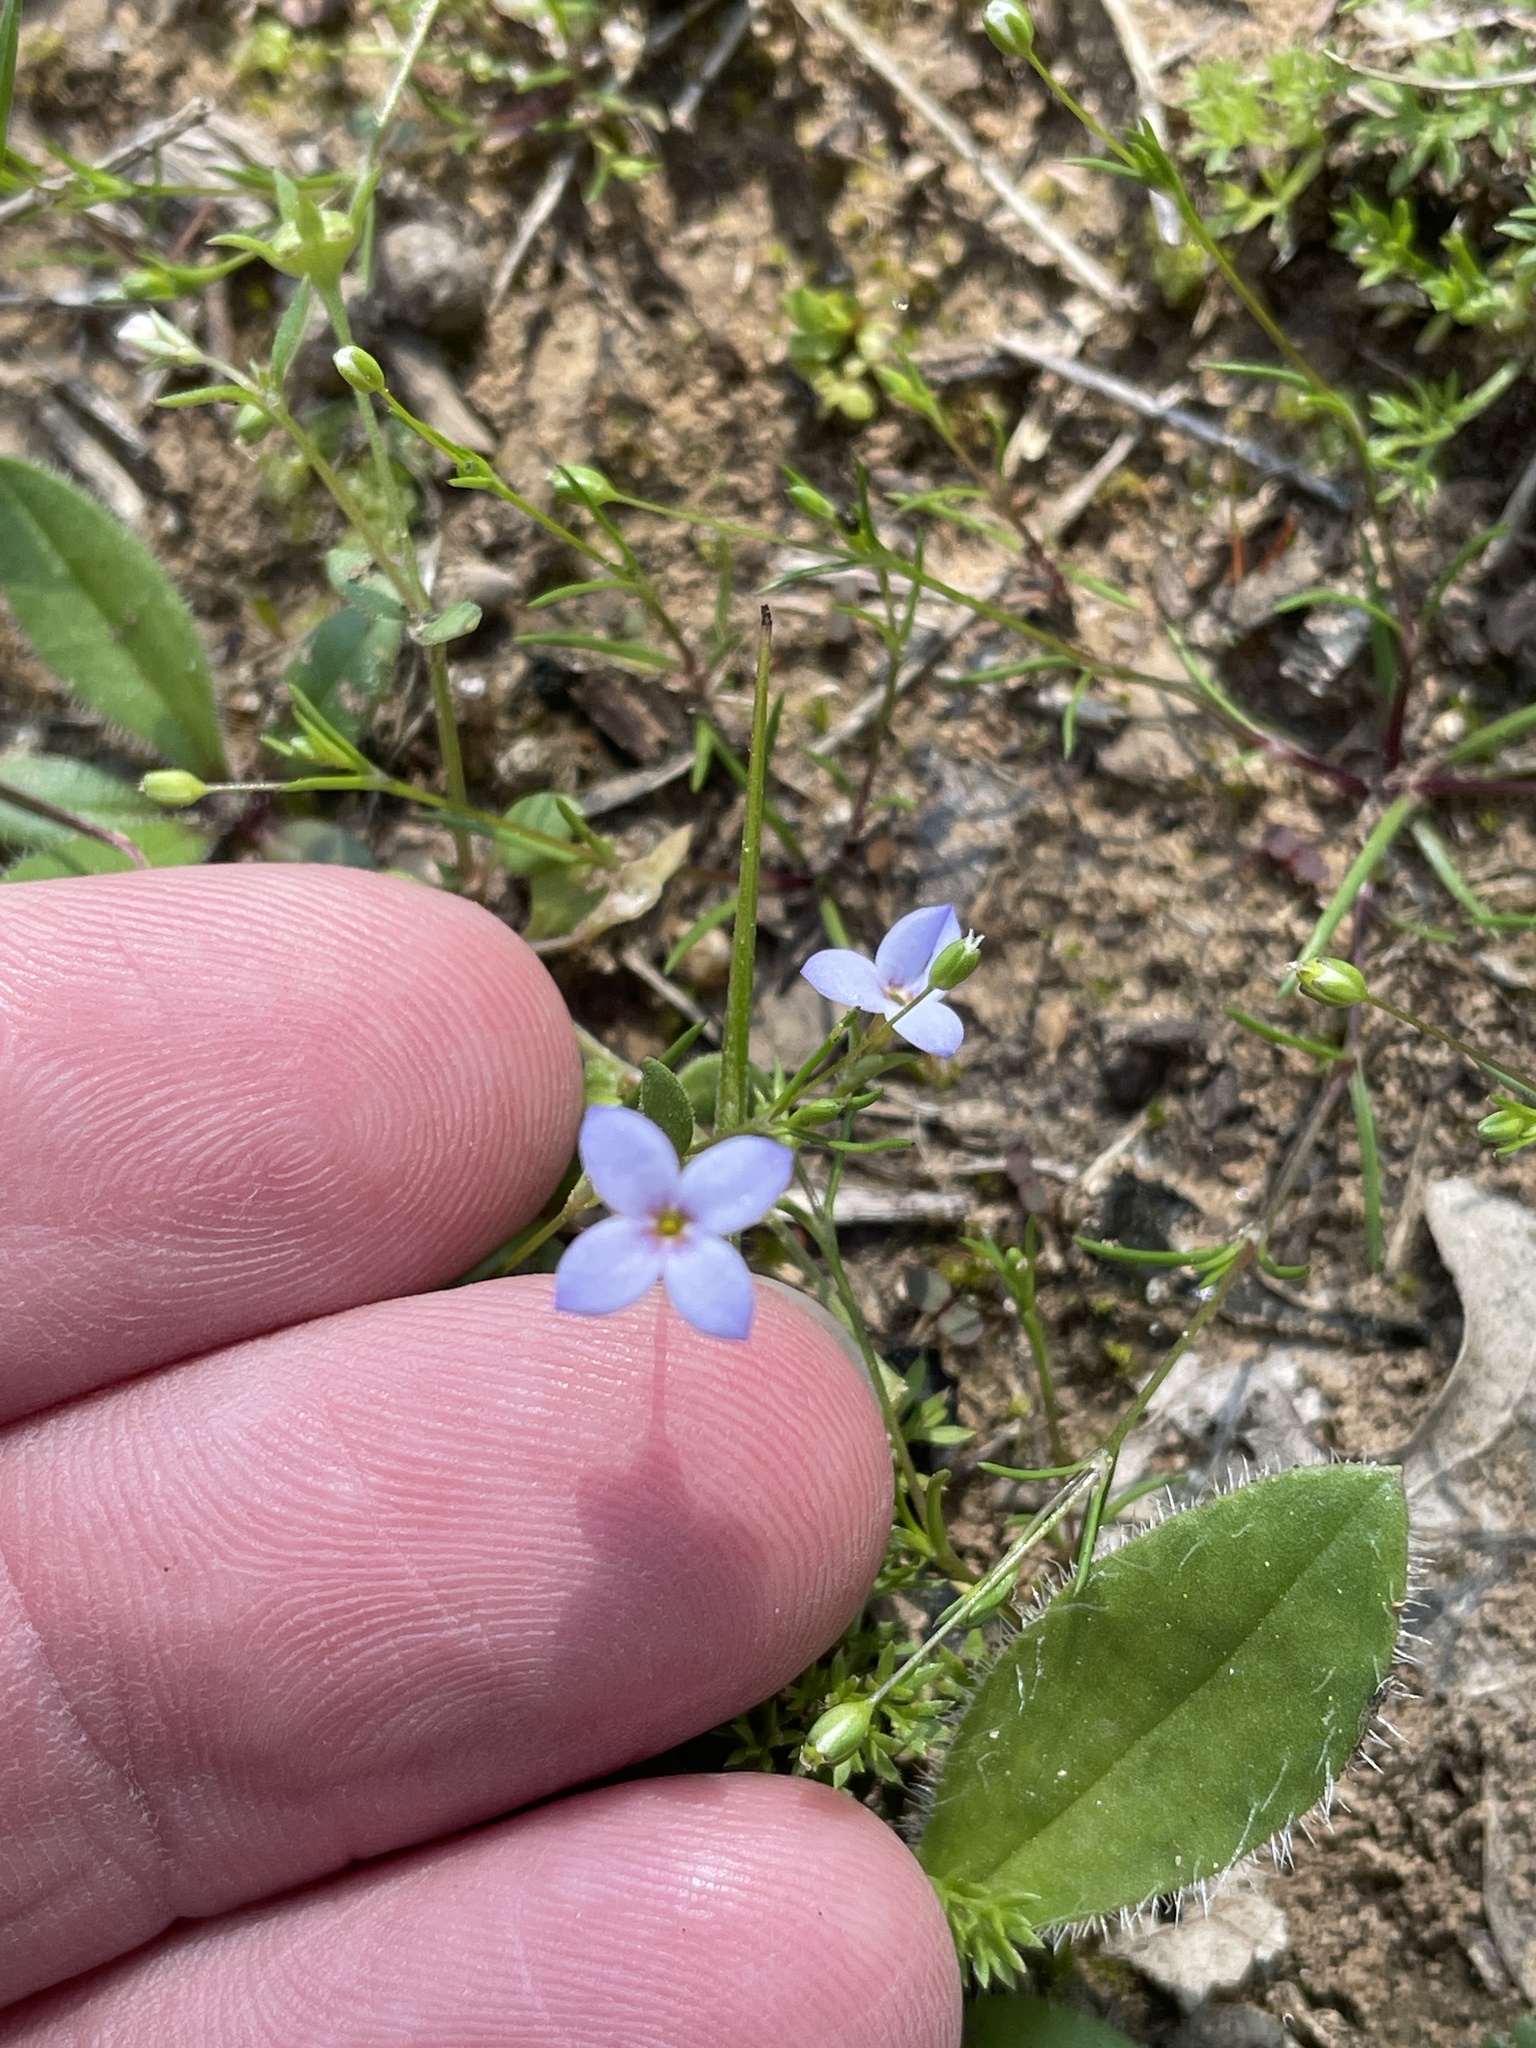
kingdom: Plantae
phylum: Tracheophyta
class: Magnoliopsida
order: Gentianales
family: Rubiaceae
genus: Houstonia
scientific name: Houstonia pusilla
